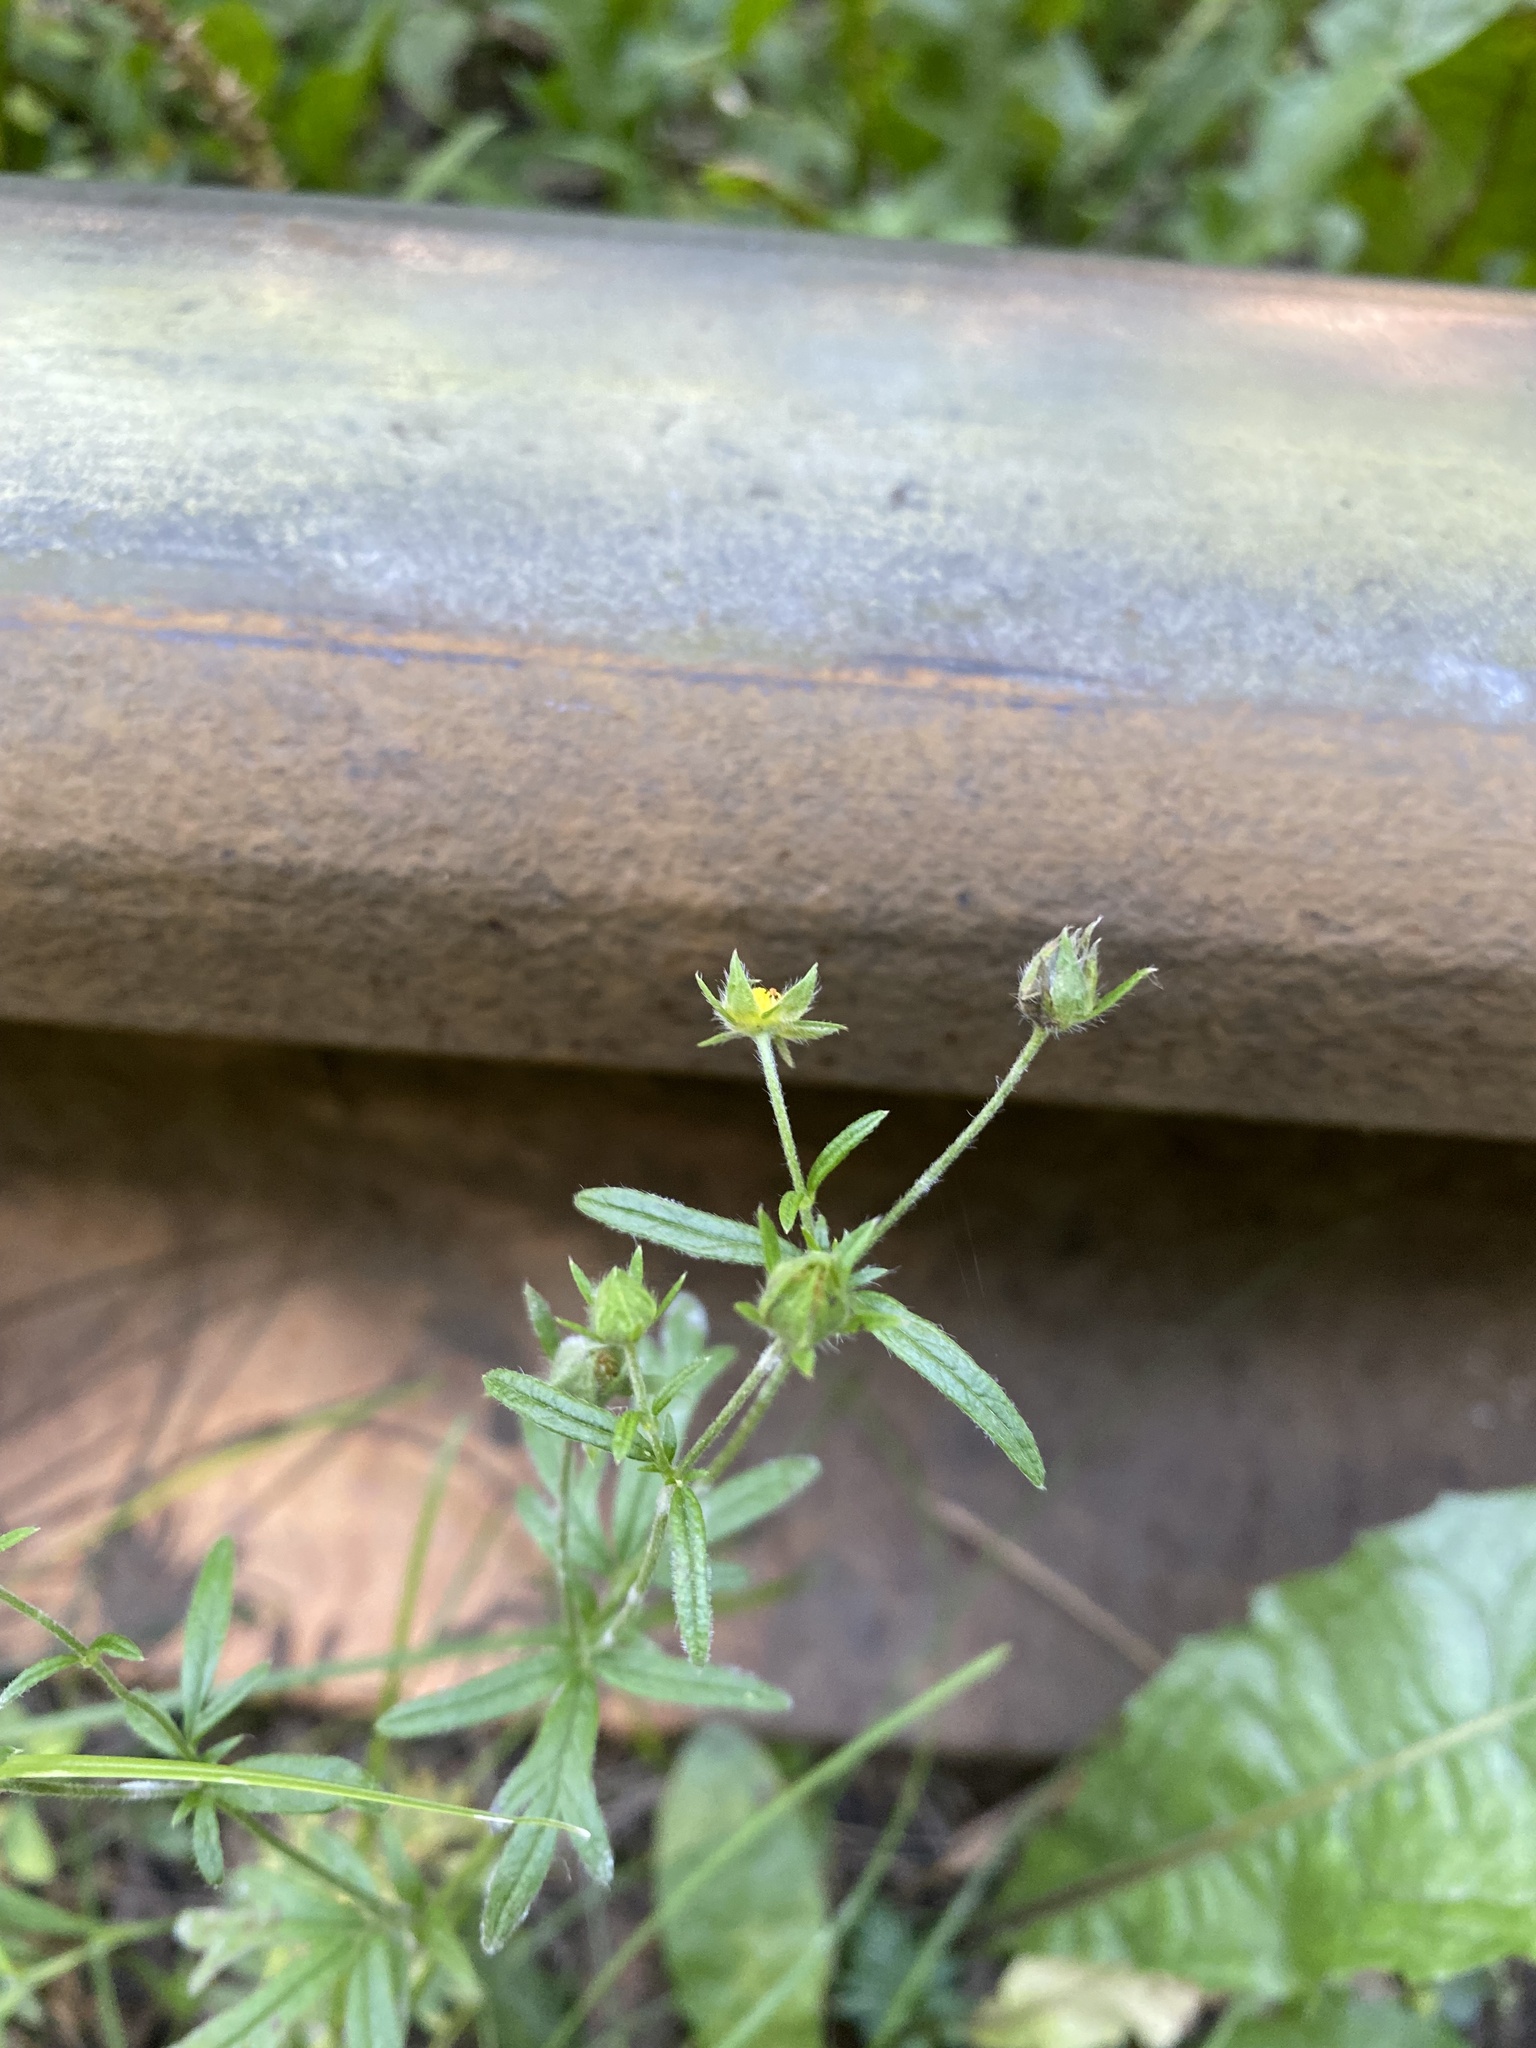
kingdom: Plantae
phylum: Tracheophyta
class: Magnoliopsida
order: Rosales
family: Rosaceae
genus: Potentilla
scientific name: Potentilla tergemina
